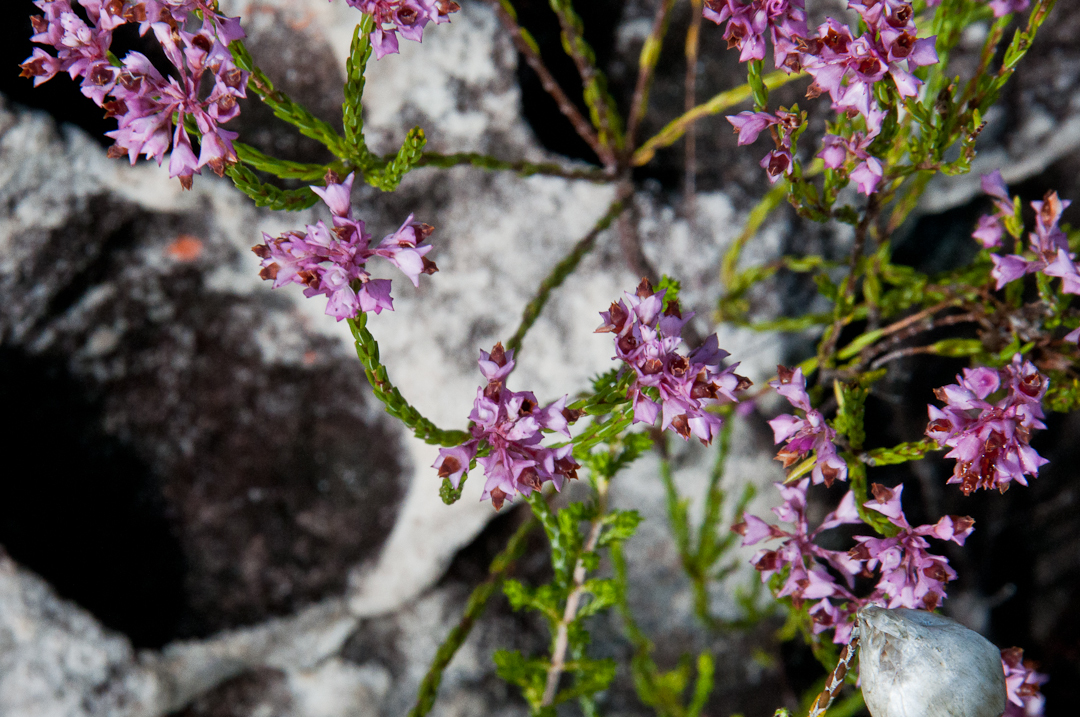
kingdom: Plantae
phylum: Tracheophyta
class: Magnoliopsida
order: Ericales
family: Ericaceae
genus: Erica
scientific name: Erica corifolia
